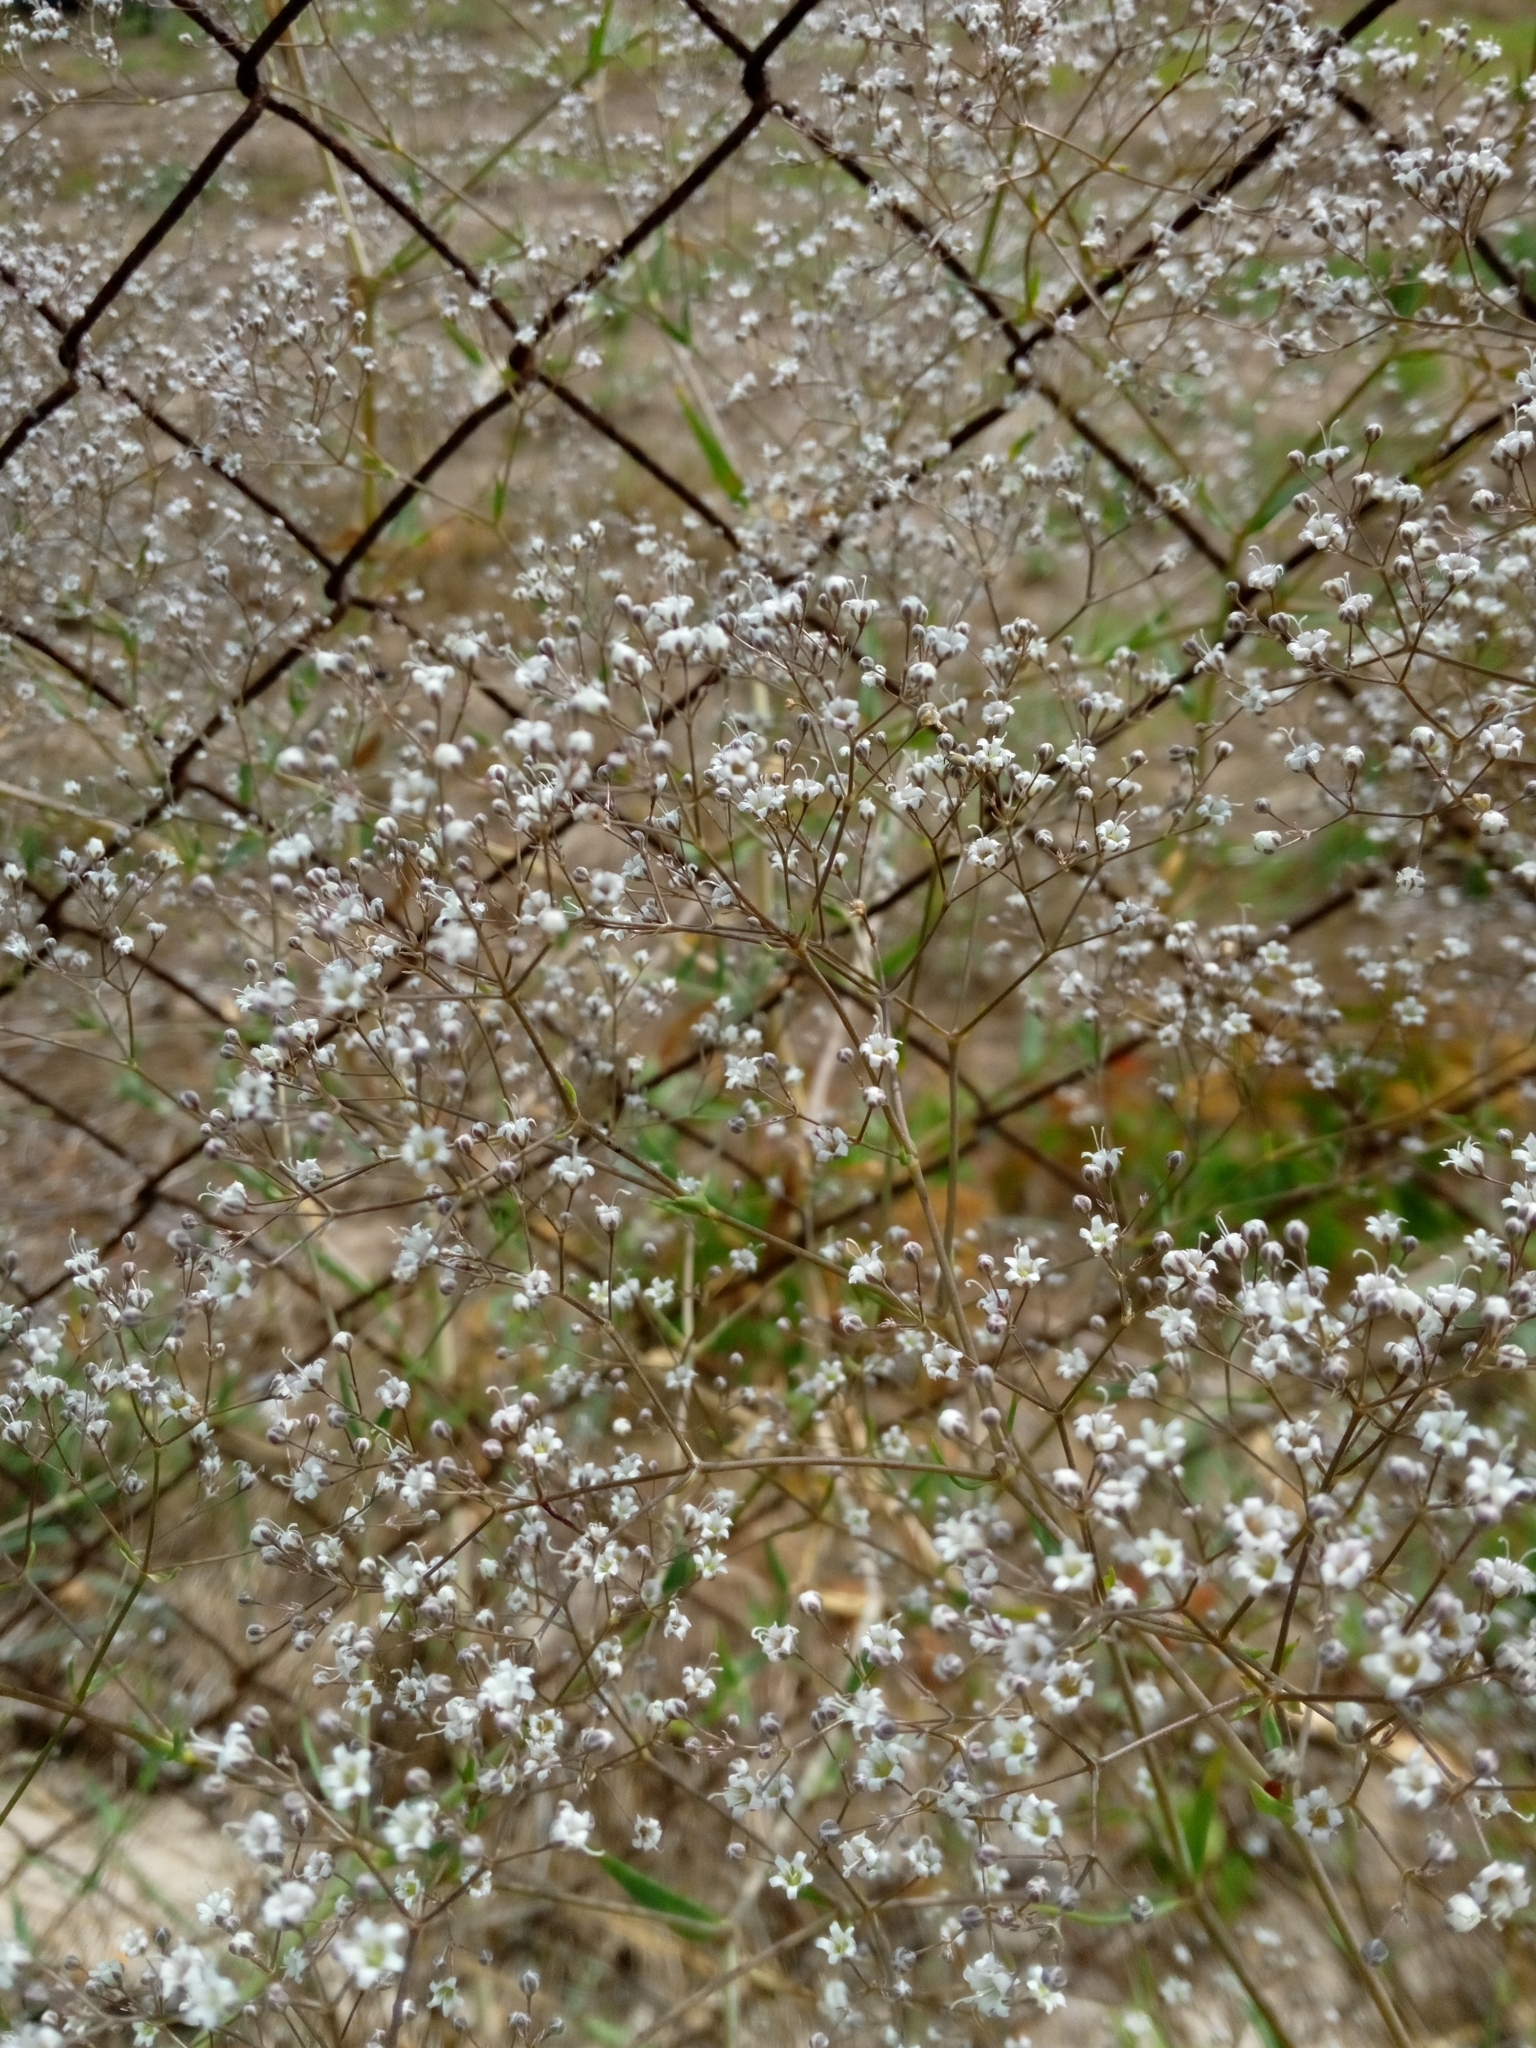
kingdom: Plantae
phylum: Tracheophyta
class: Magnoliopsida
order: Caryophyllales
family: Caryophyllaceae
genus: Gypsophila
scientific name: Gypsophila paniculata
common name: Baby's-breath
